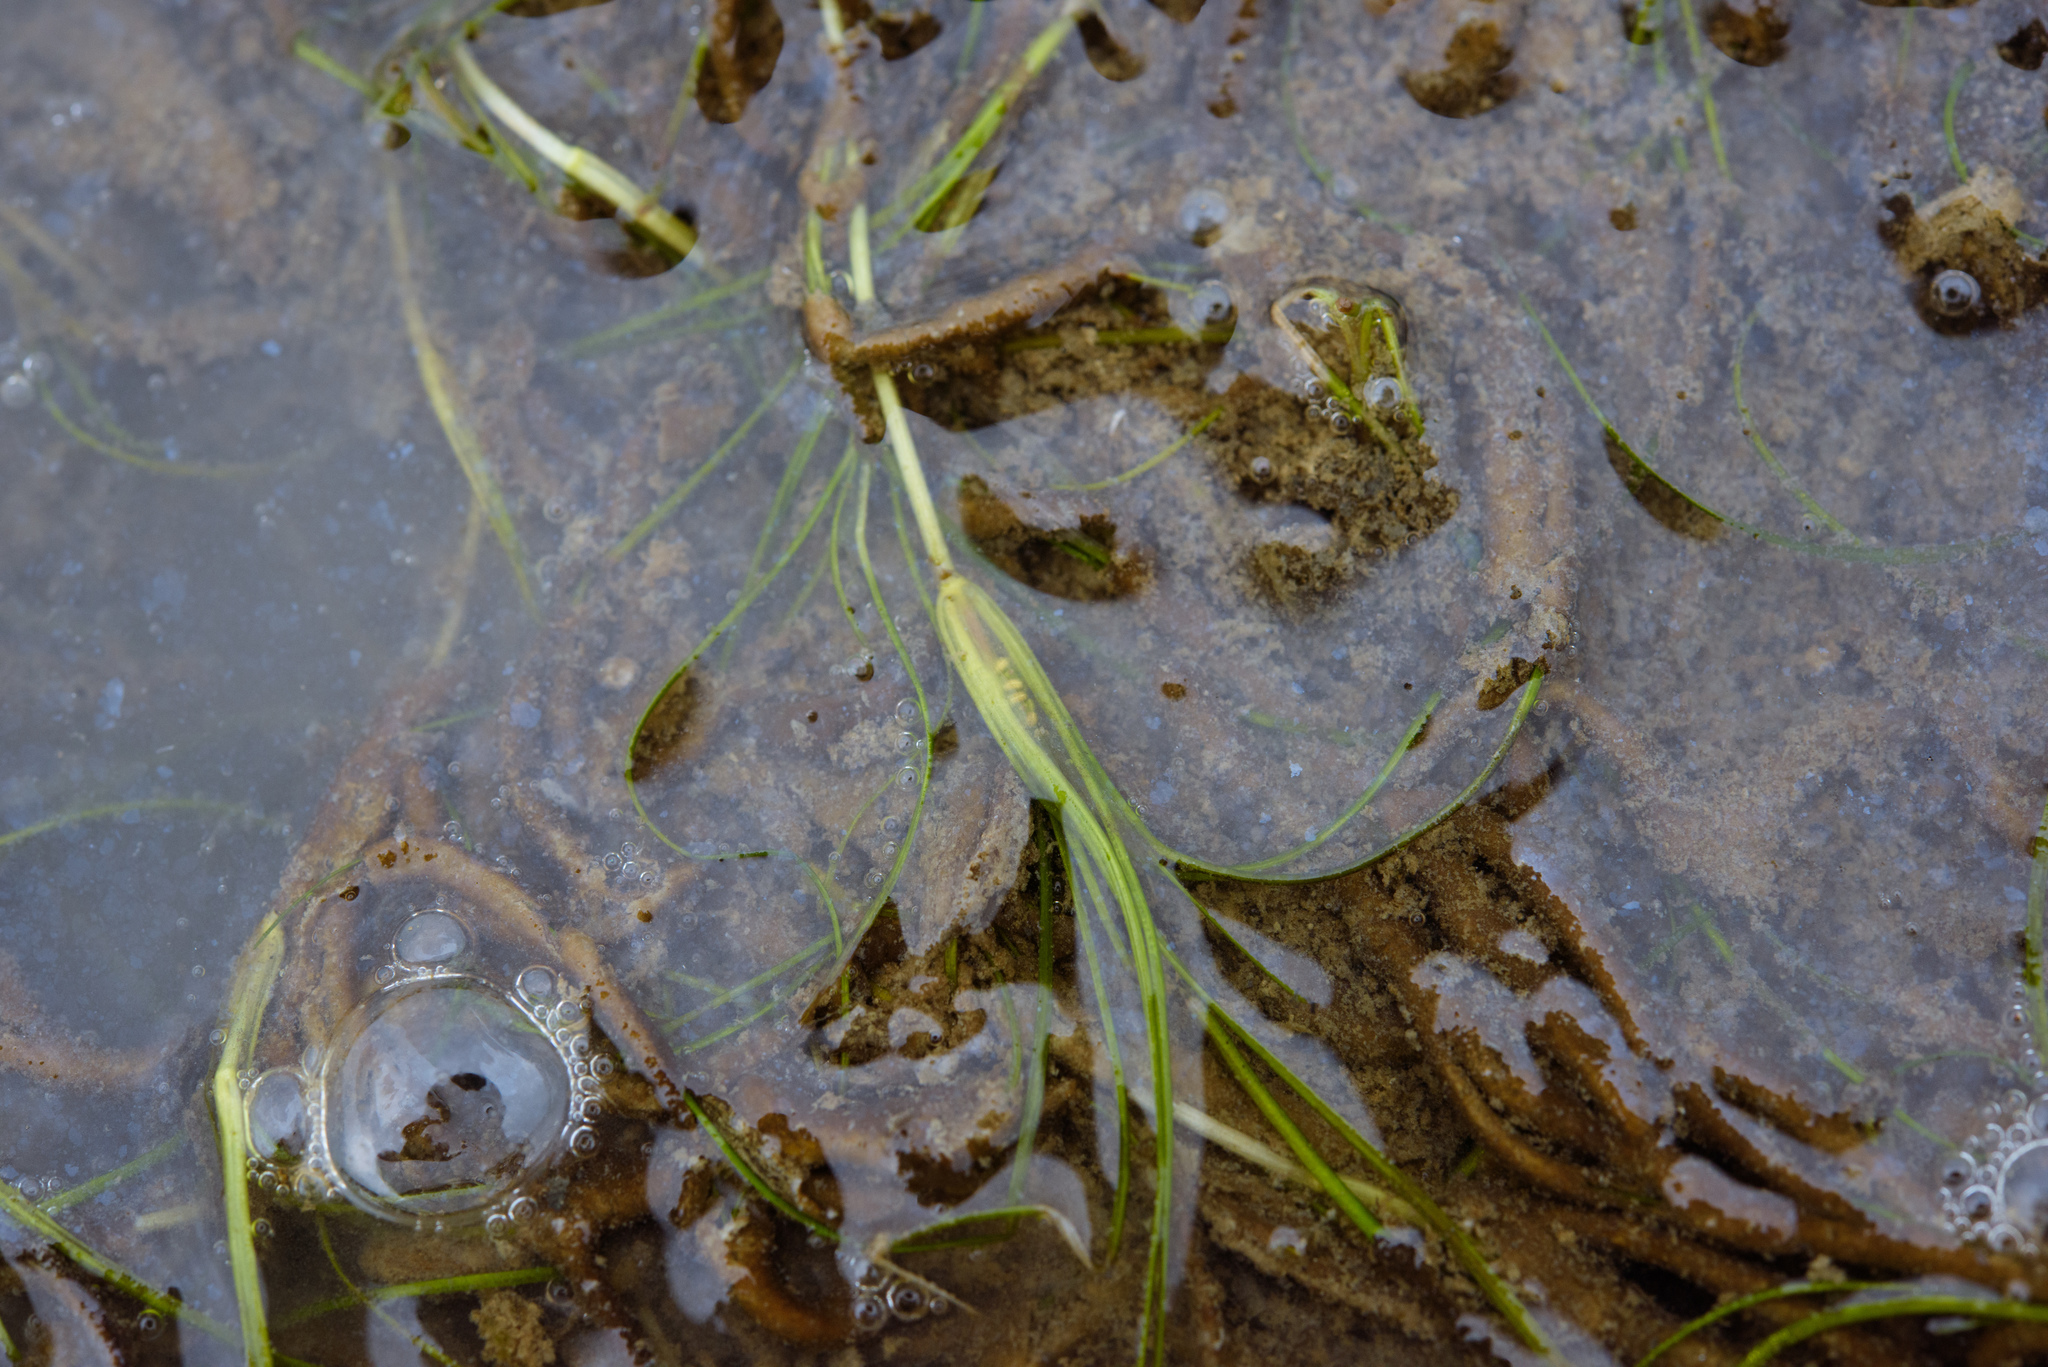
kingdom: Plantae
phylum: Tracheophyta
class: Liliopsida
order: Alismatales
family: Ruppiaceae
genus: Ruppia
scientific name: Ruppia maritima
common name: Beaked tasselweed
